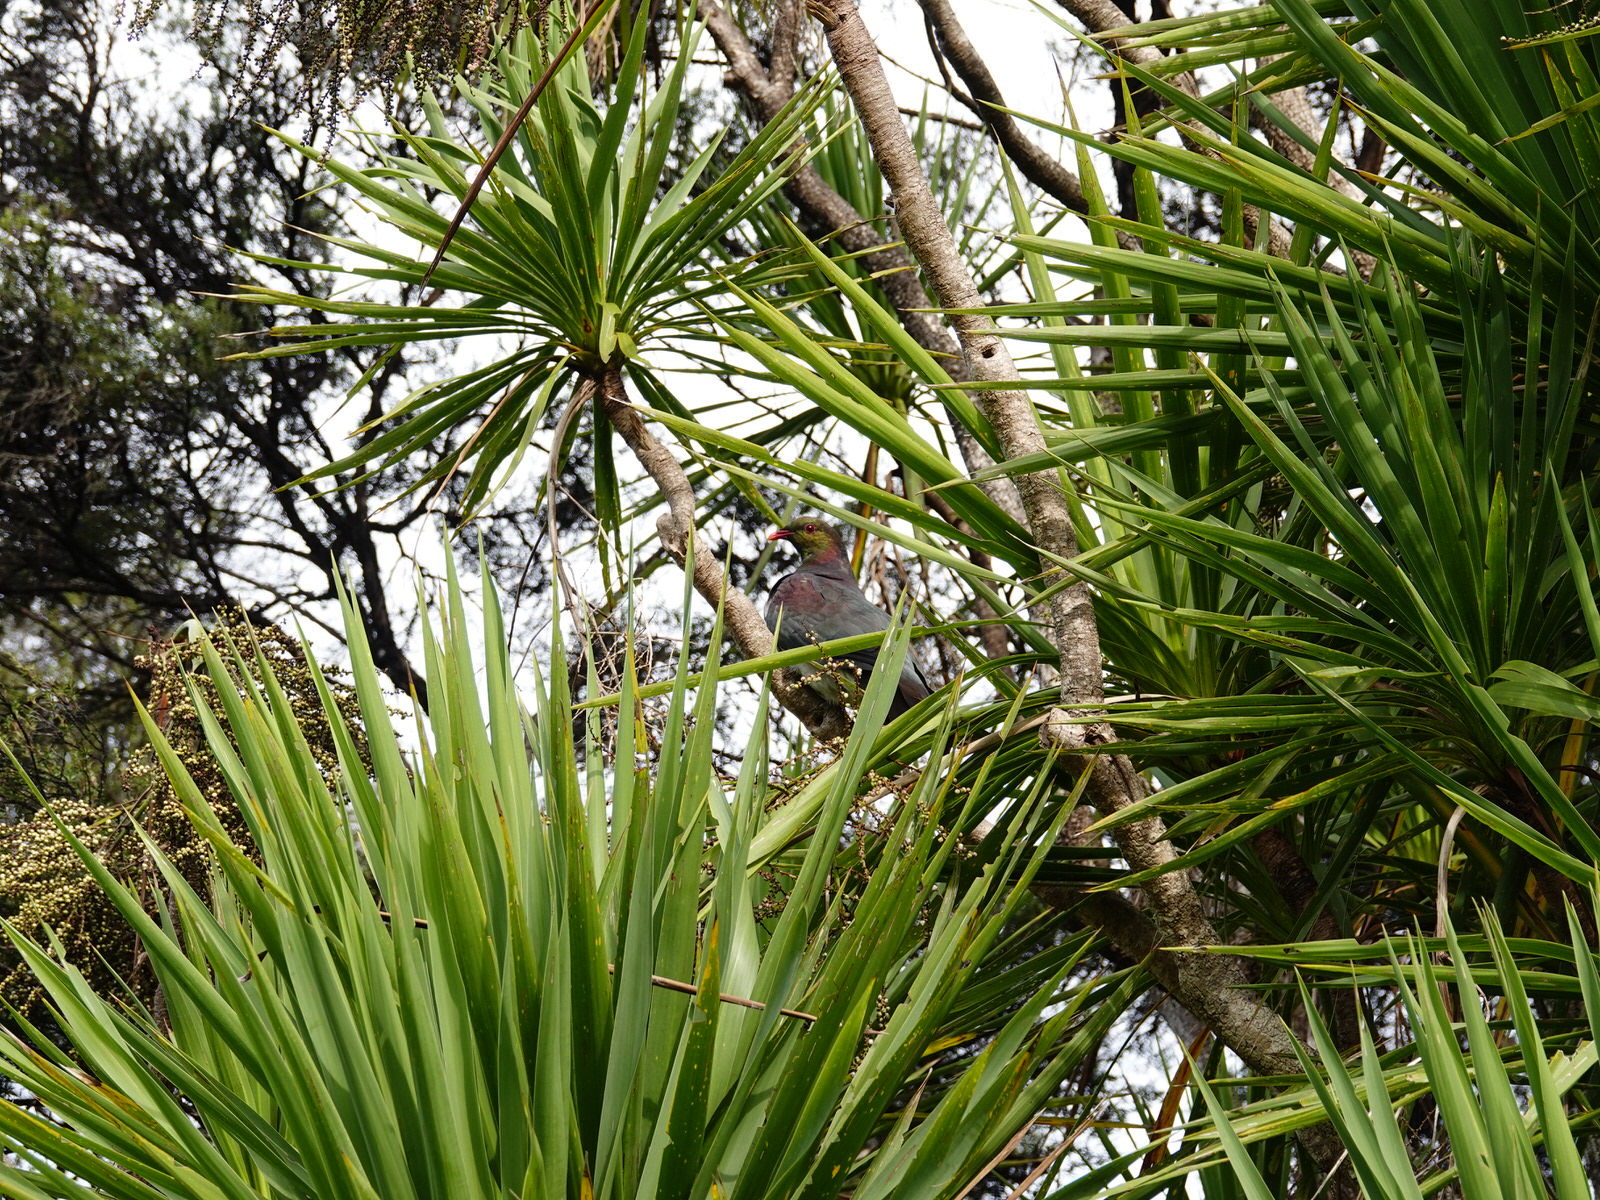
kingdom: Animalia
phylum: Chordata
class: Aves
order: Columbiformes
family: Columbidae
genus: Hemiphaga
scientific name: Hemiphaga novaeseelandiae
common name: New zealand pigeon
